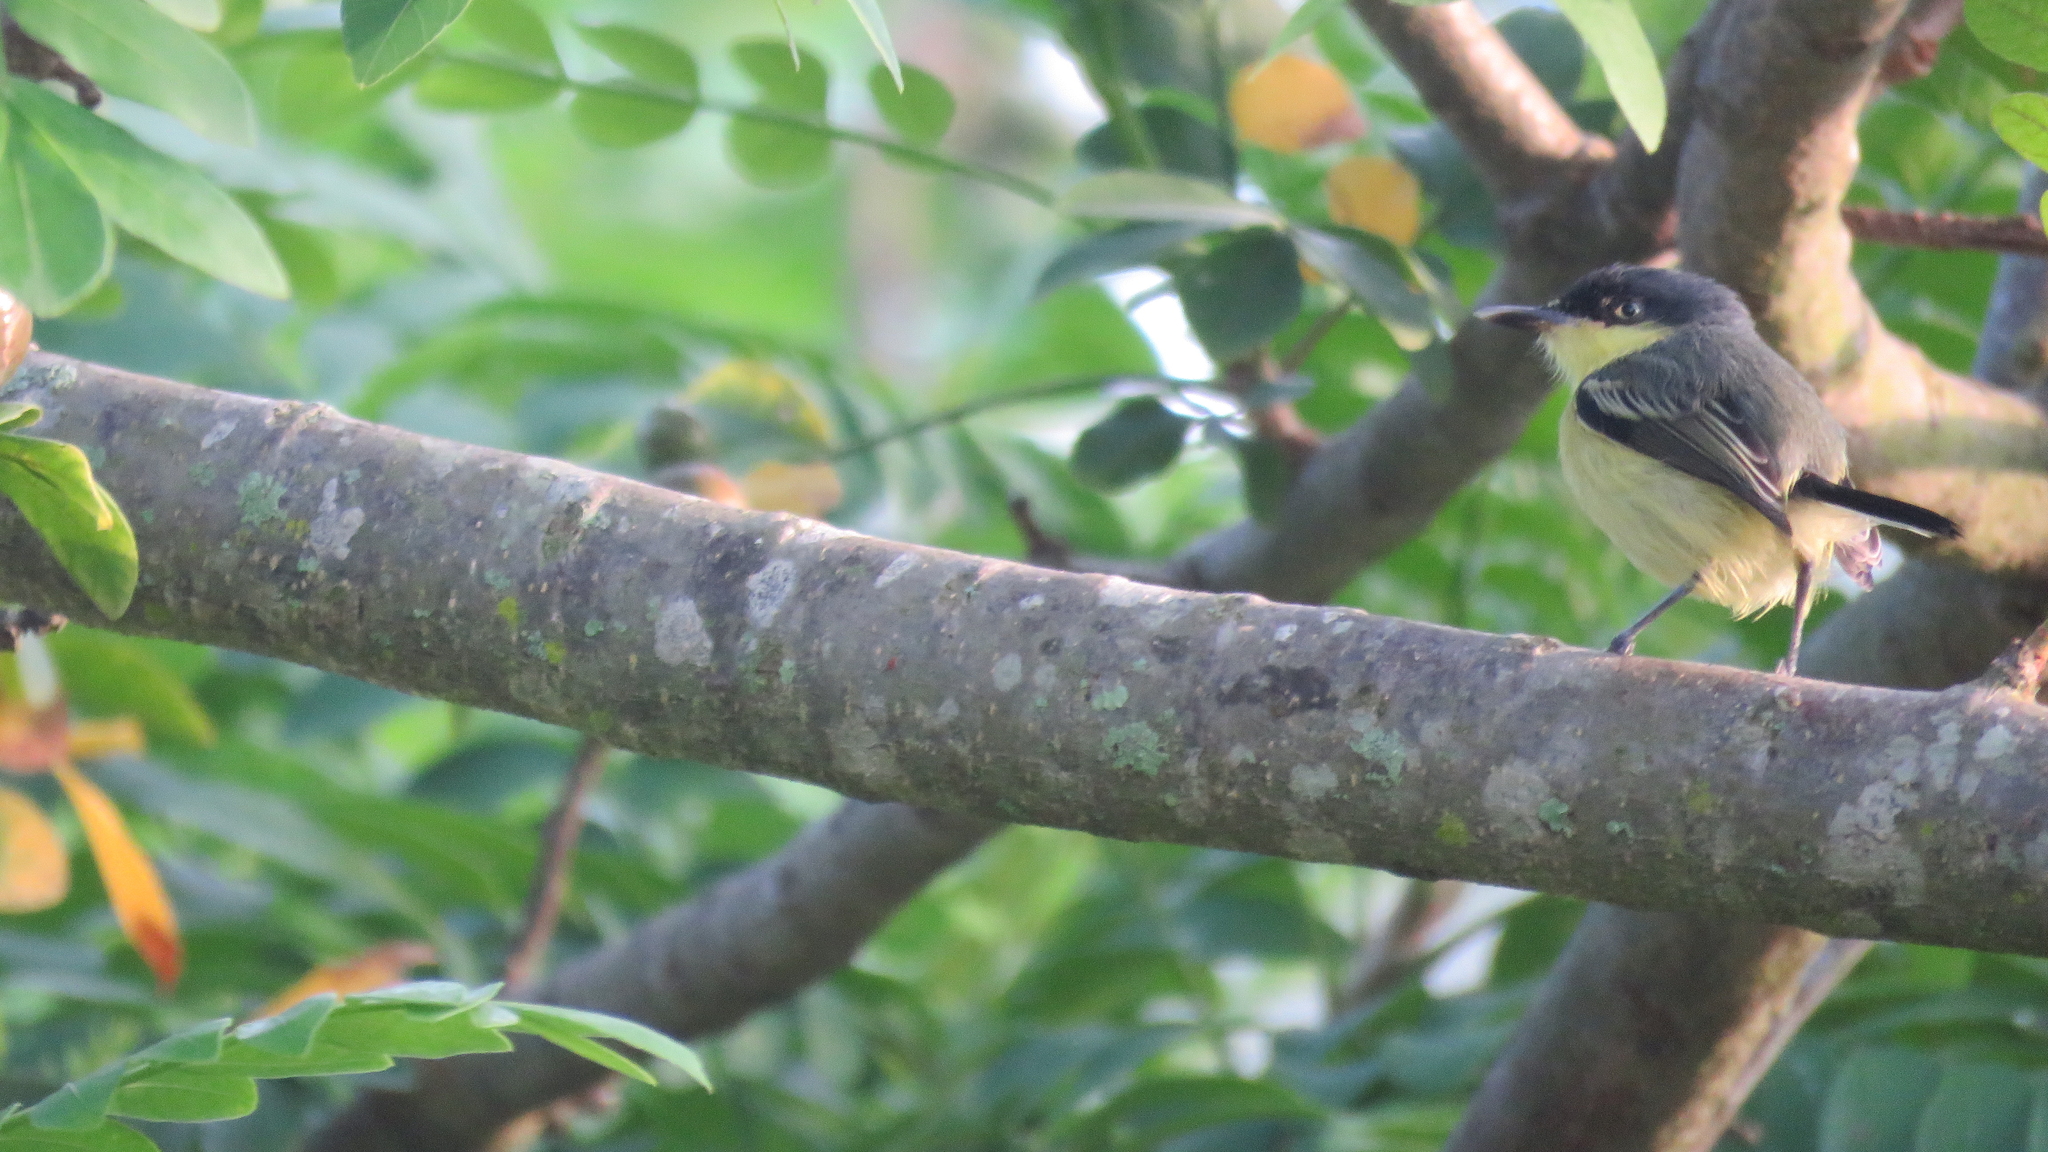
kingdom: Animalia
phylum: Chordata
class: Aves
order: Passeriformes
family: Tyrannidae
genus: Todirostrum
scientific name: Todirostrum cinereum
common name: Common tody-flycatcher
